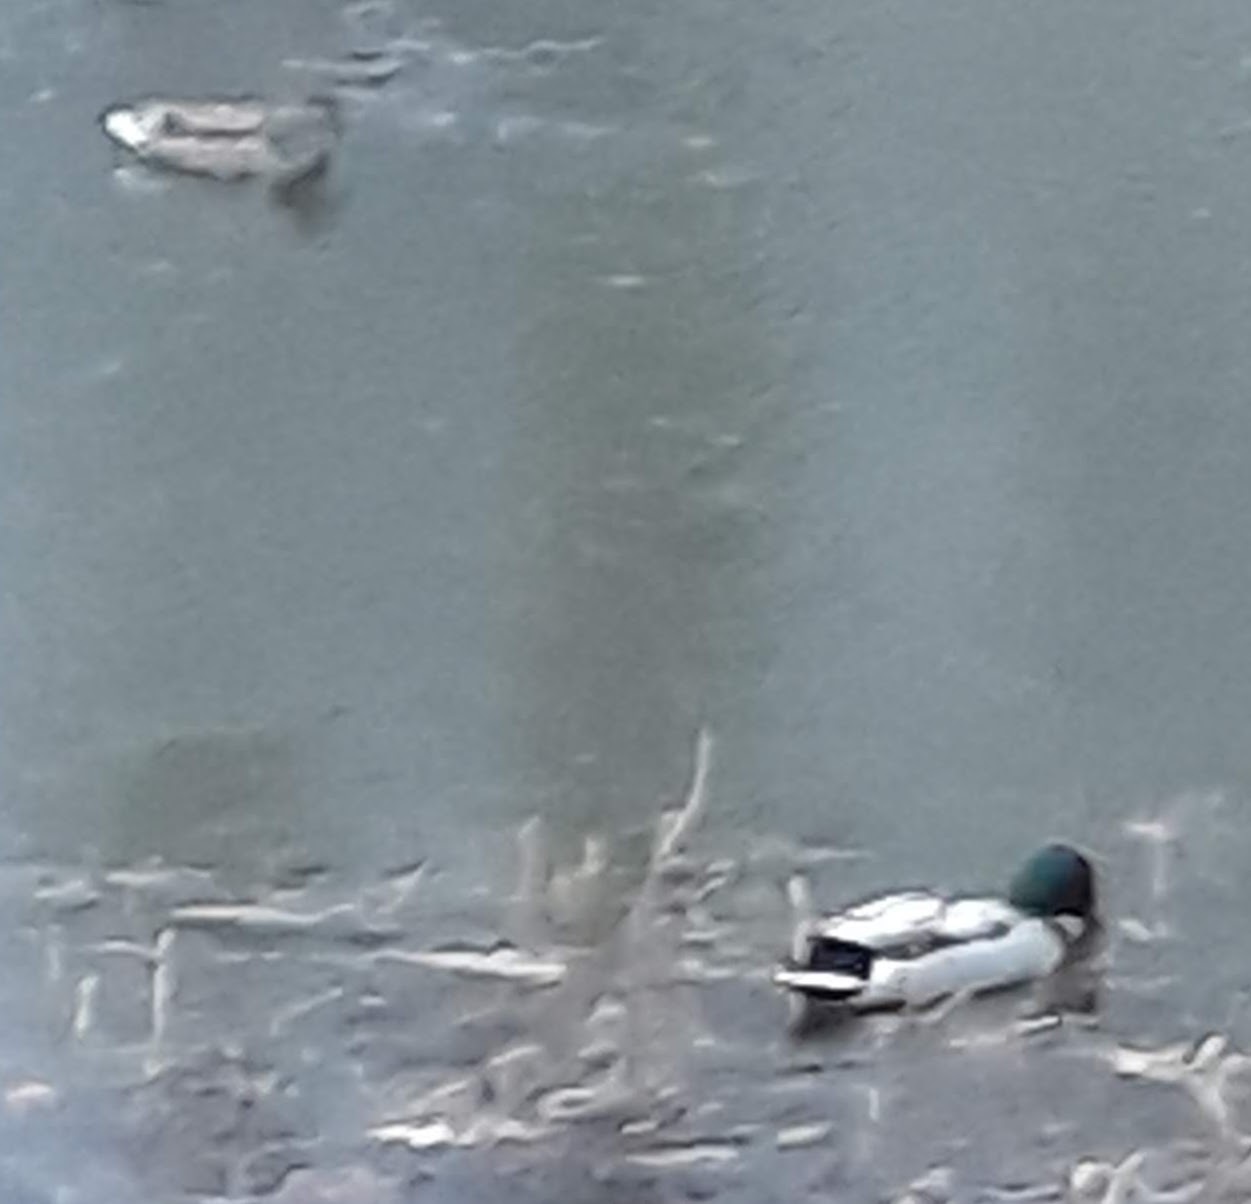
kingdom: Animalia
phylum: Chordata
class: Aves
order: Anseriformes
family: Anatidae
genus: Anas
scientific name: Anas platyrhynchos
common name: Mallard
